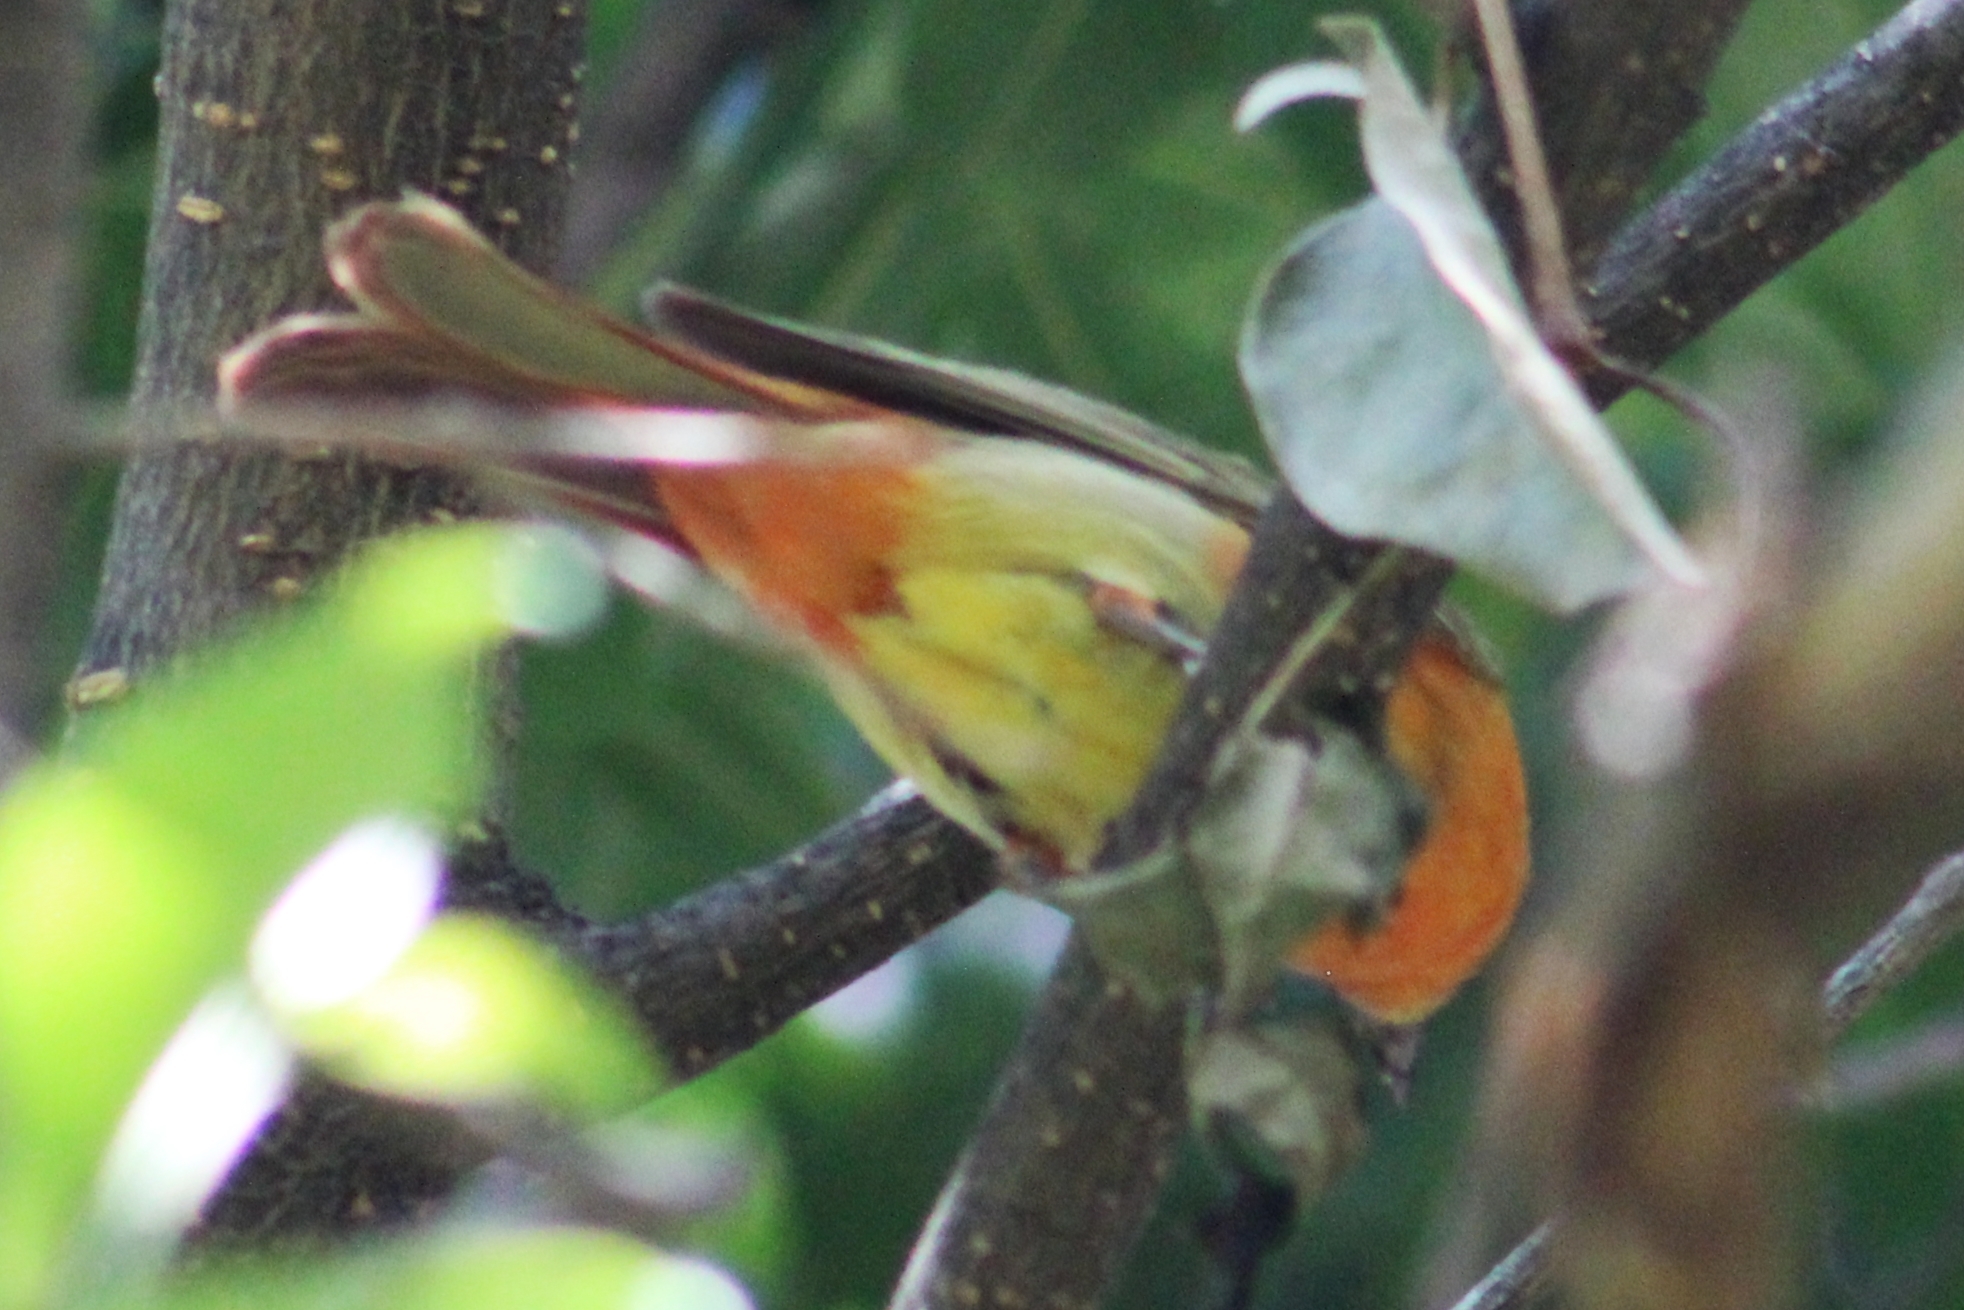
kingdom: Animalia
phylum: Chordata
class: Aves
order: Passeriformes
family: Cardinalidae
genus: Piranga
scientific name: Piranga rubra
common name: Summer tanager
